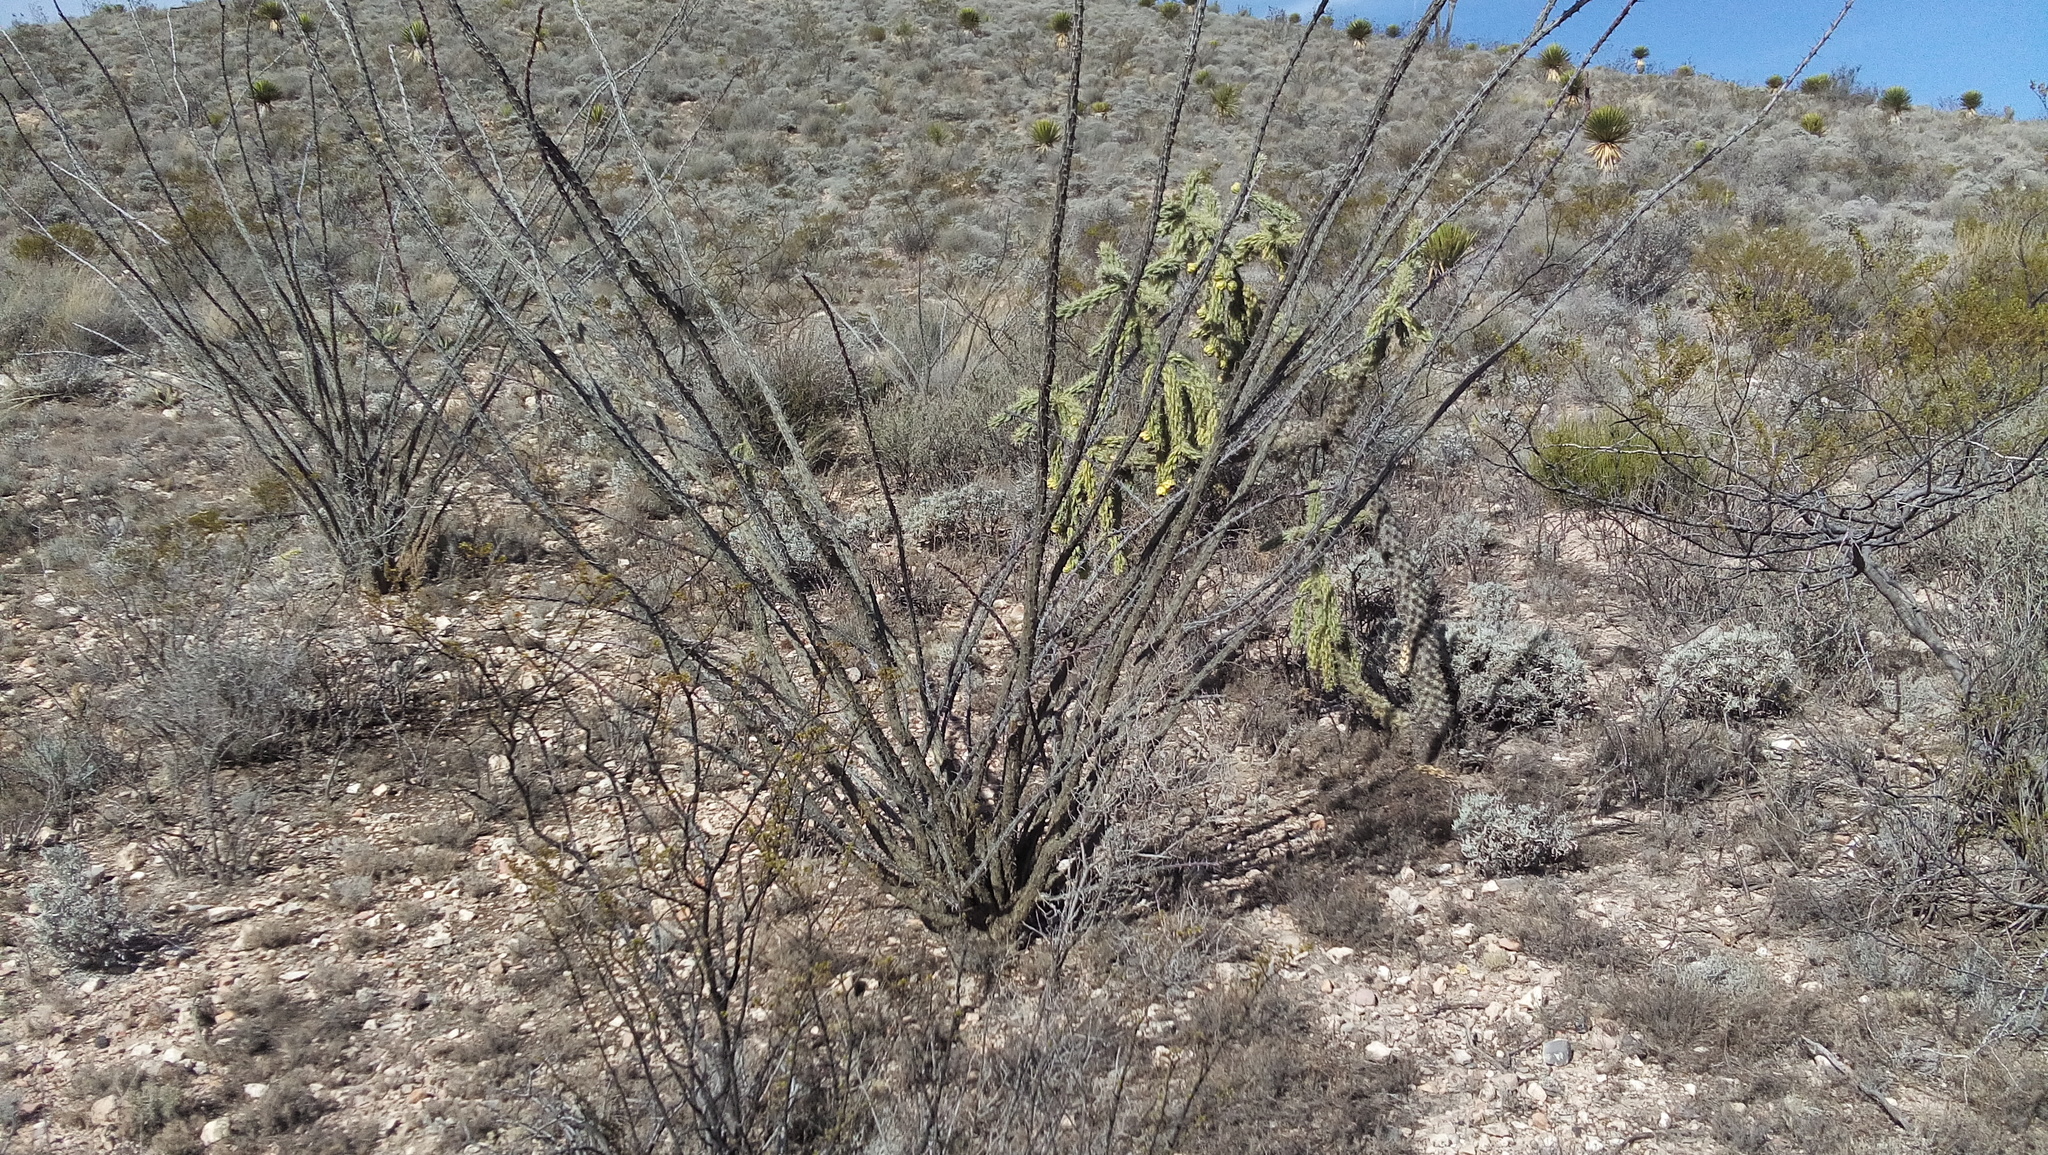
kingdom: Plantae
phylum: Tracheophyta
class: Magnoliopsida
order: Ericales
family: Fouquieriaceae
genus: Fouquieria
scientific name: Fouquieria splendens
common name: Vine-cactus
